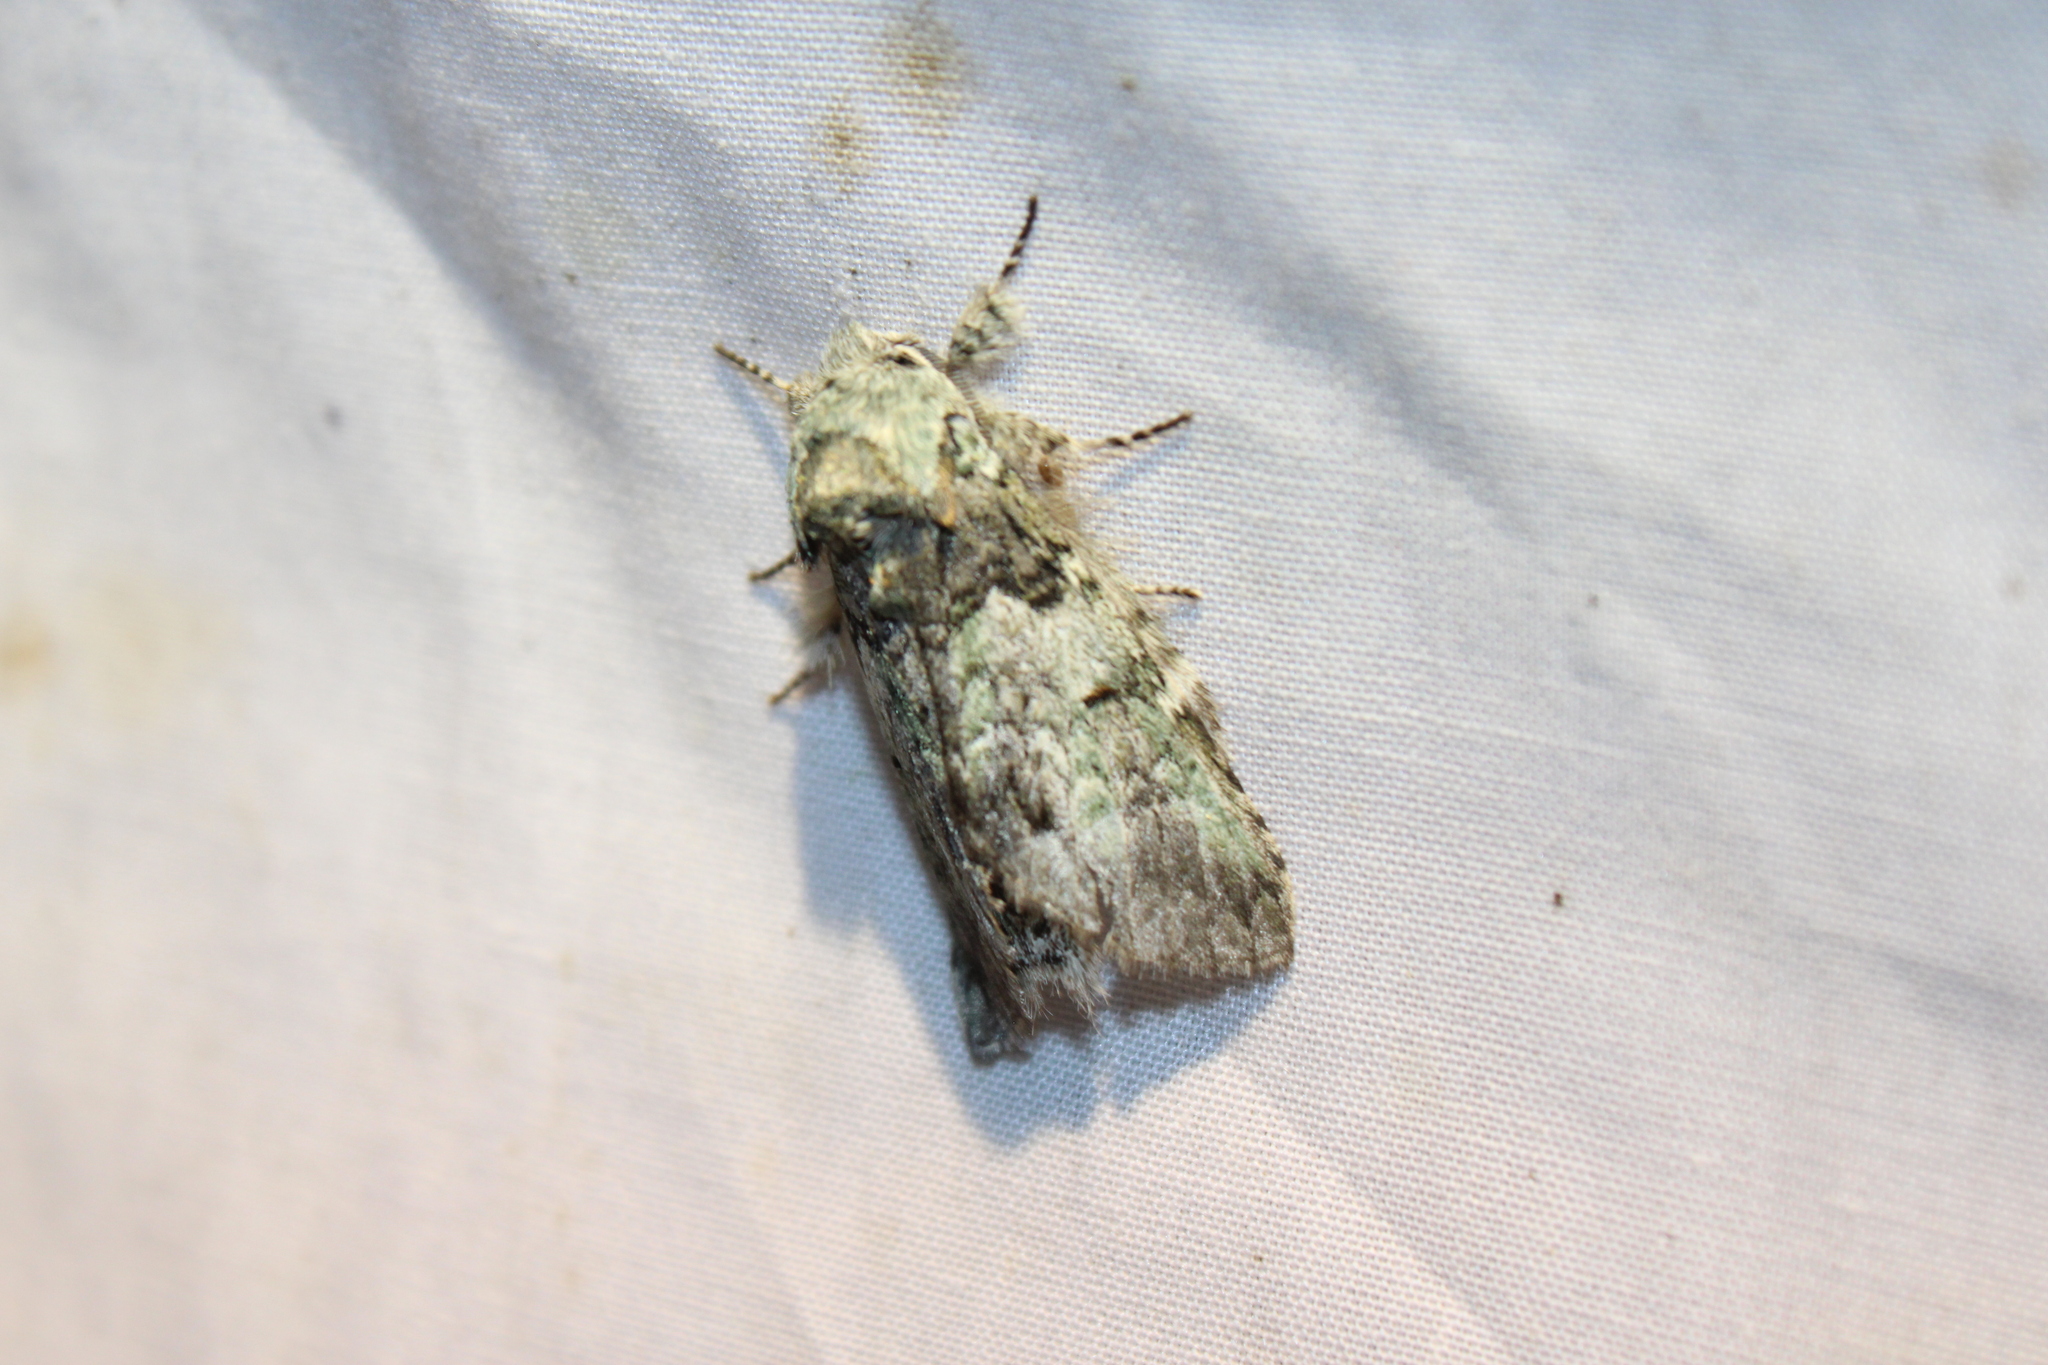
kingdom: Animalia
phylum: Arthropoda
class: Insecta
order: Lepidoptera
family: Notodontidae
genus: Macrurocampa
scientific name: Macrurocampa marthesia
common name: Mottled prominent
